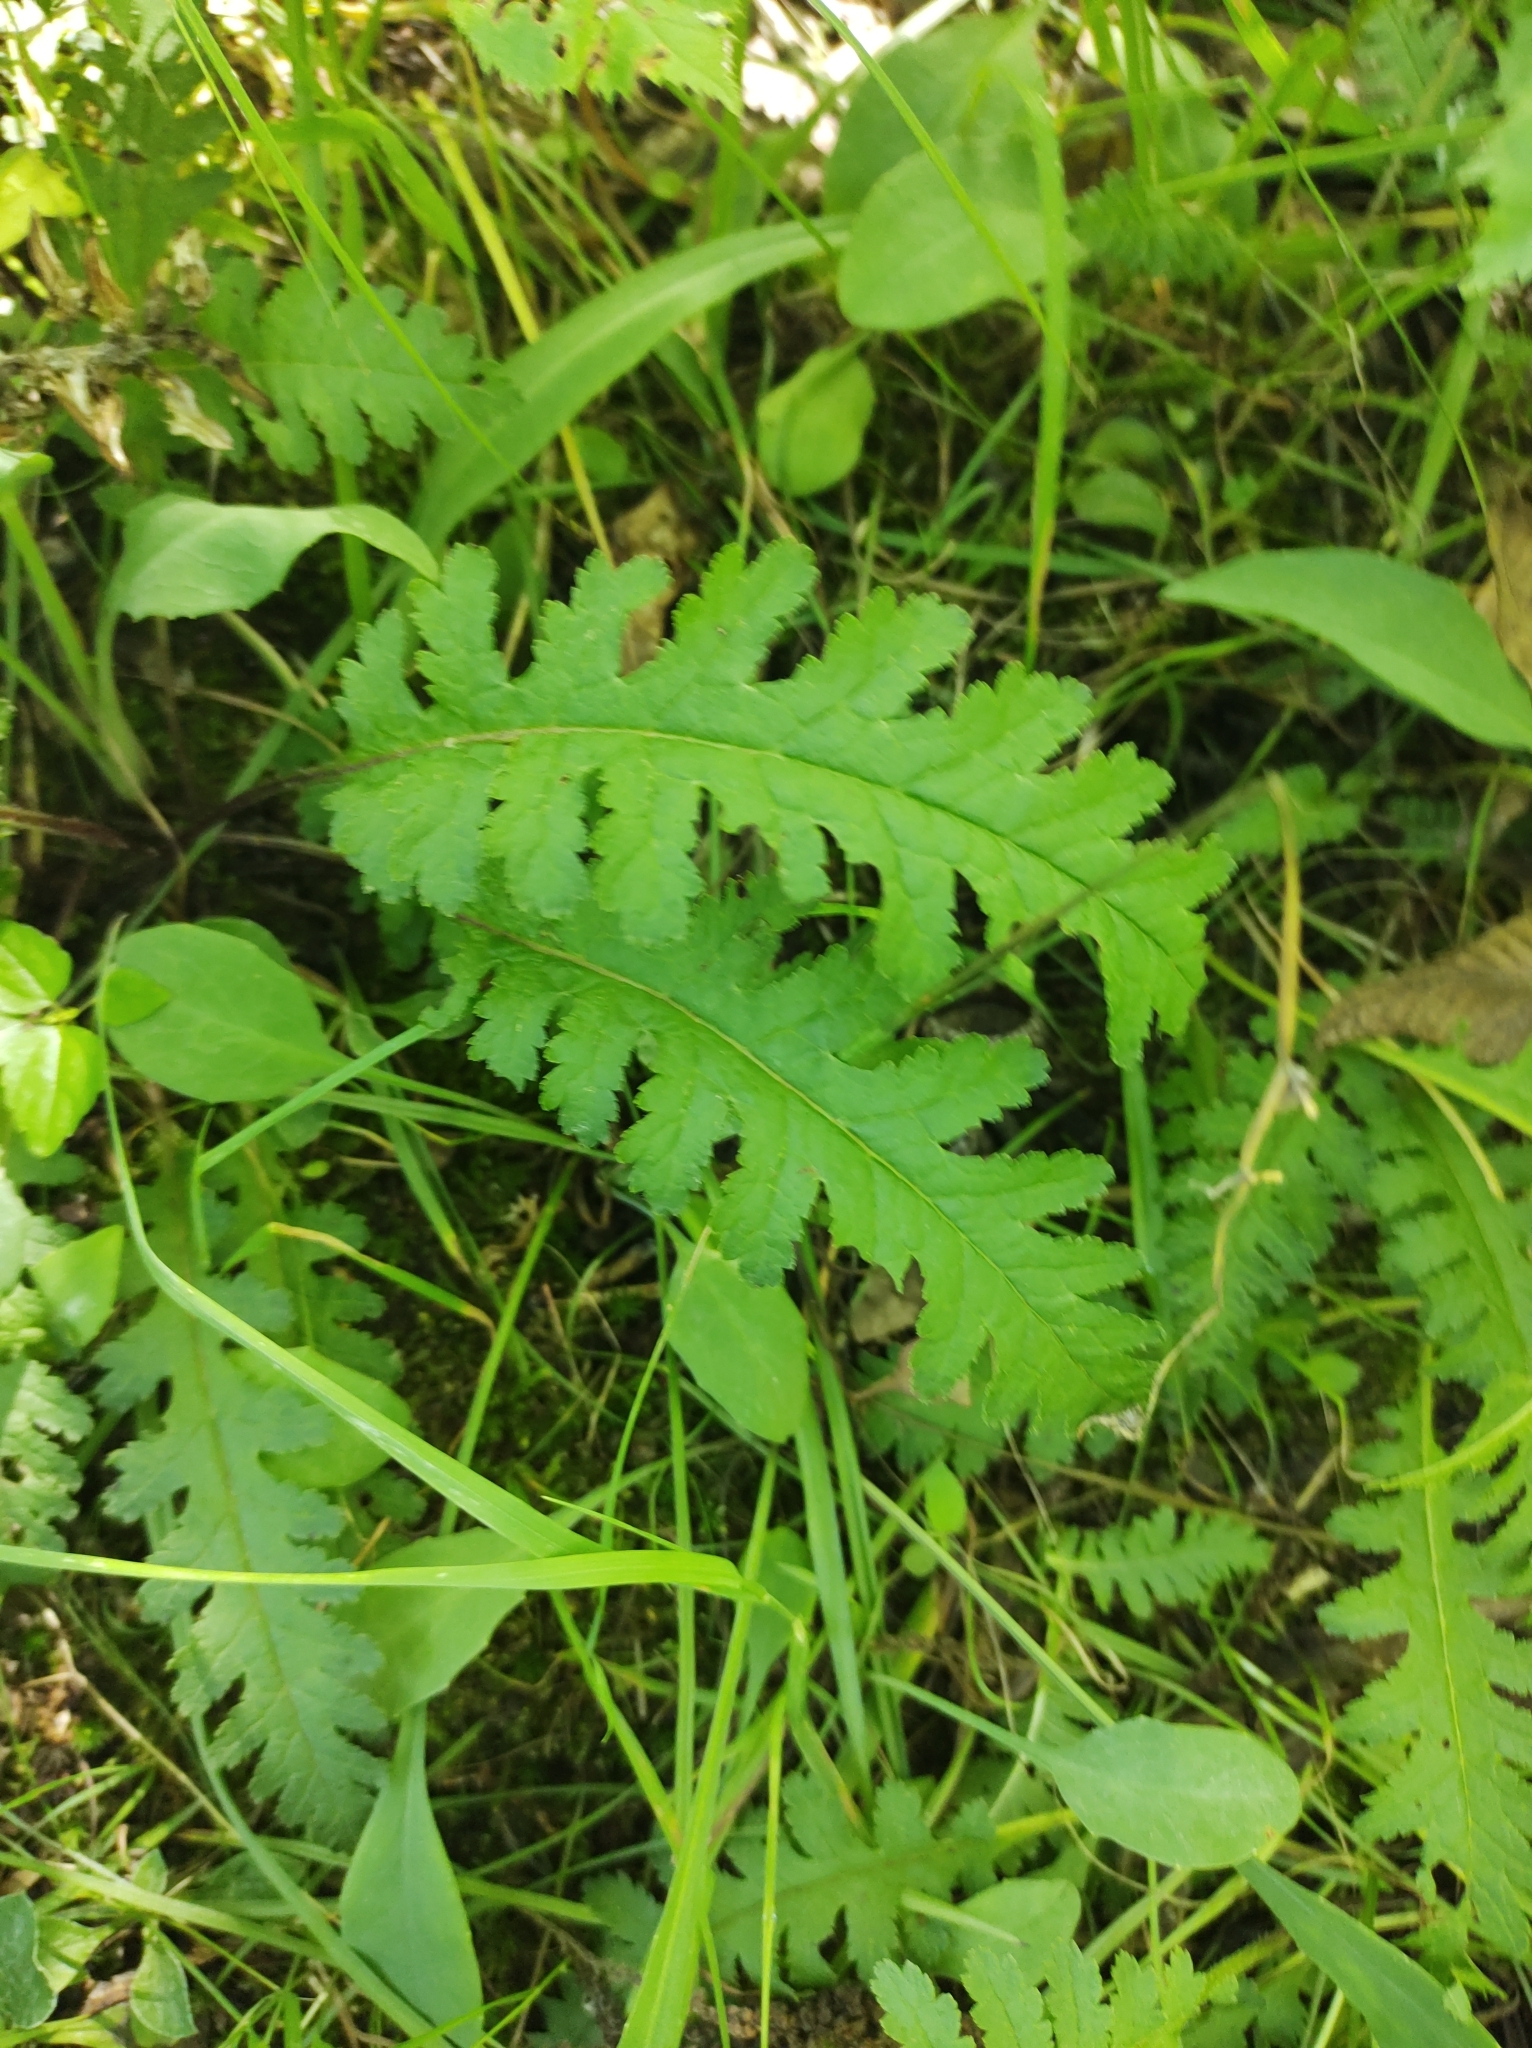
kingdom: Plantae
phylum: Tracheophyta
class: Magnoliopsida
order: Lamiales
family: Orobanchaceae
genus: Pedicularis
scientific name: Pedicularis canadensis
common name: Early lousewort
